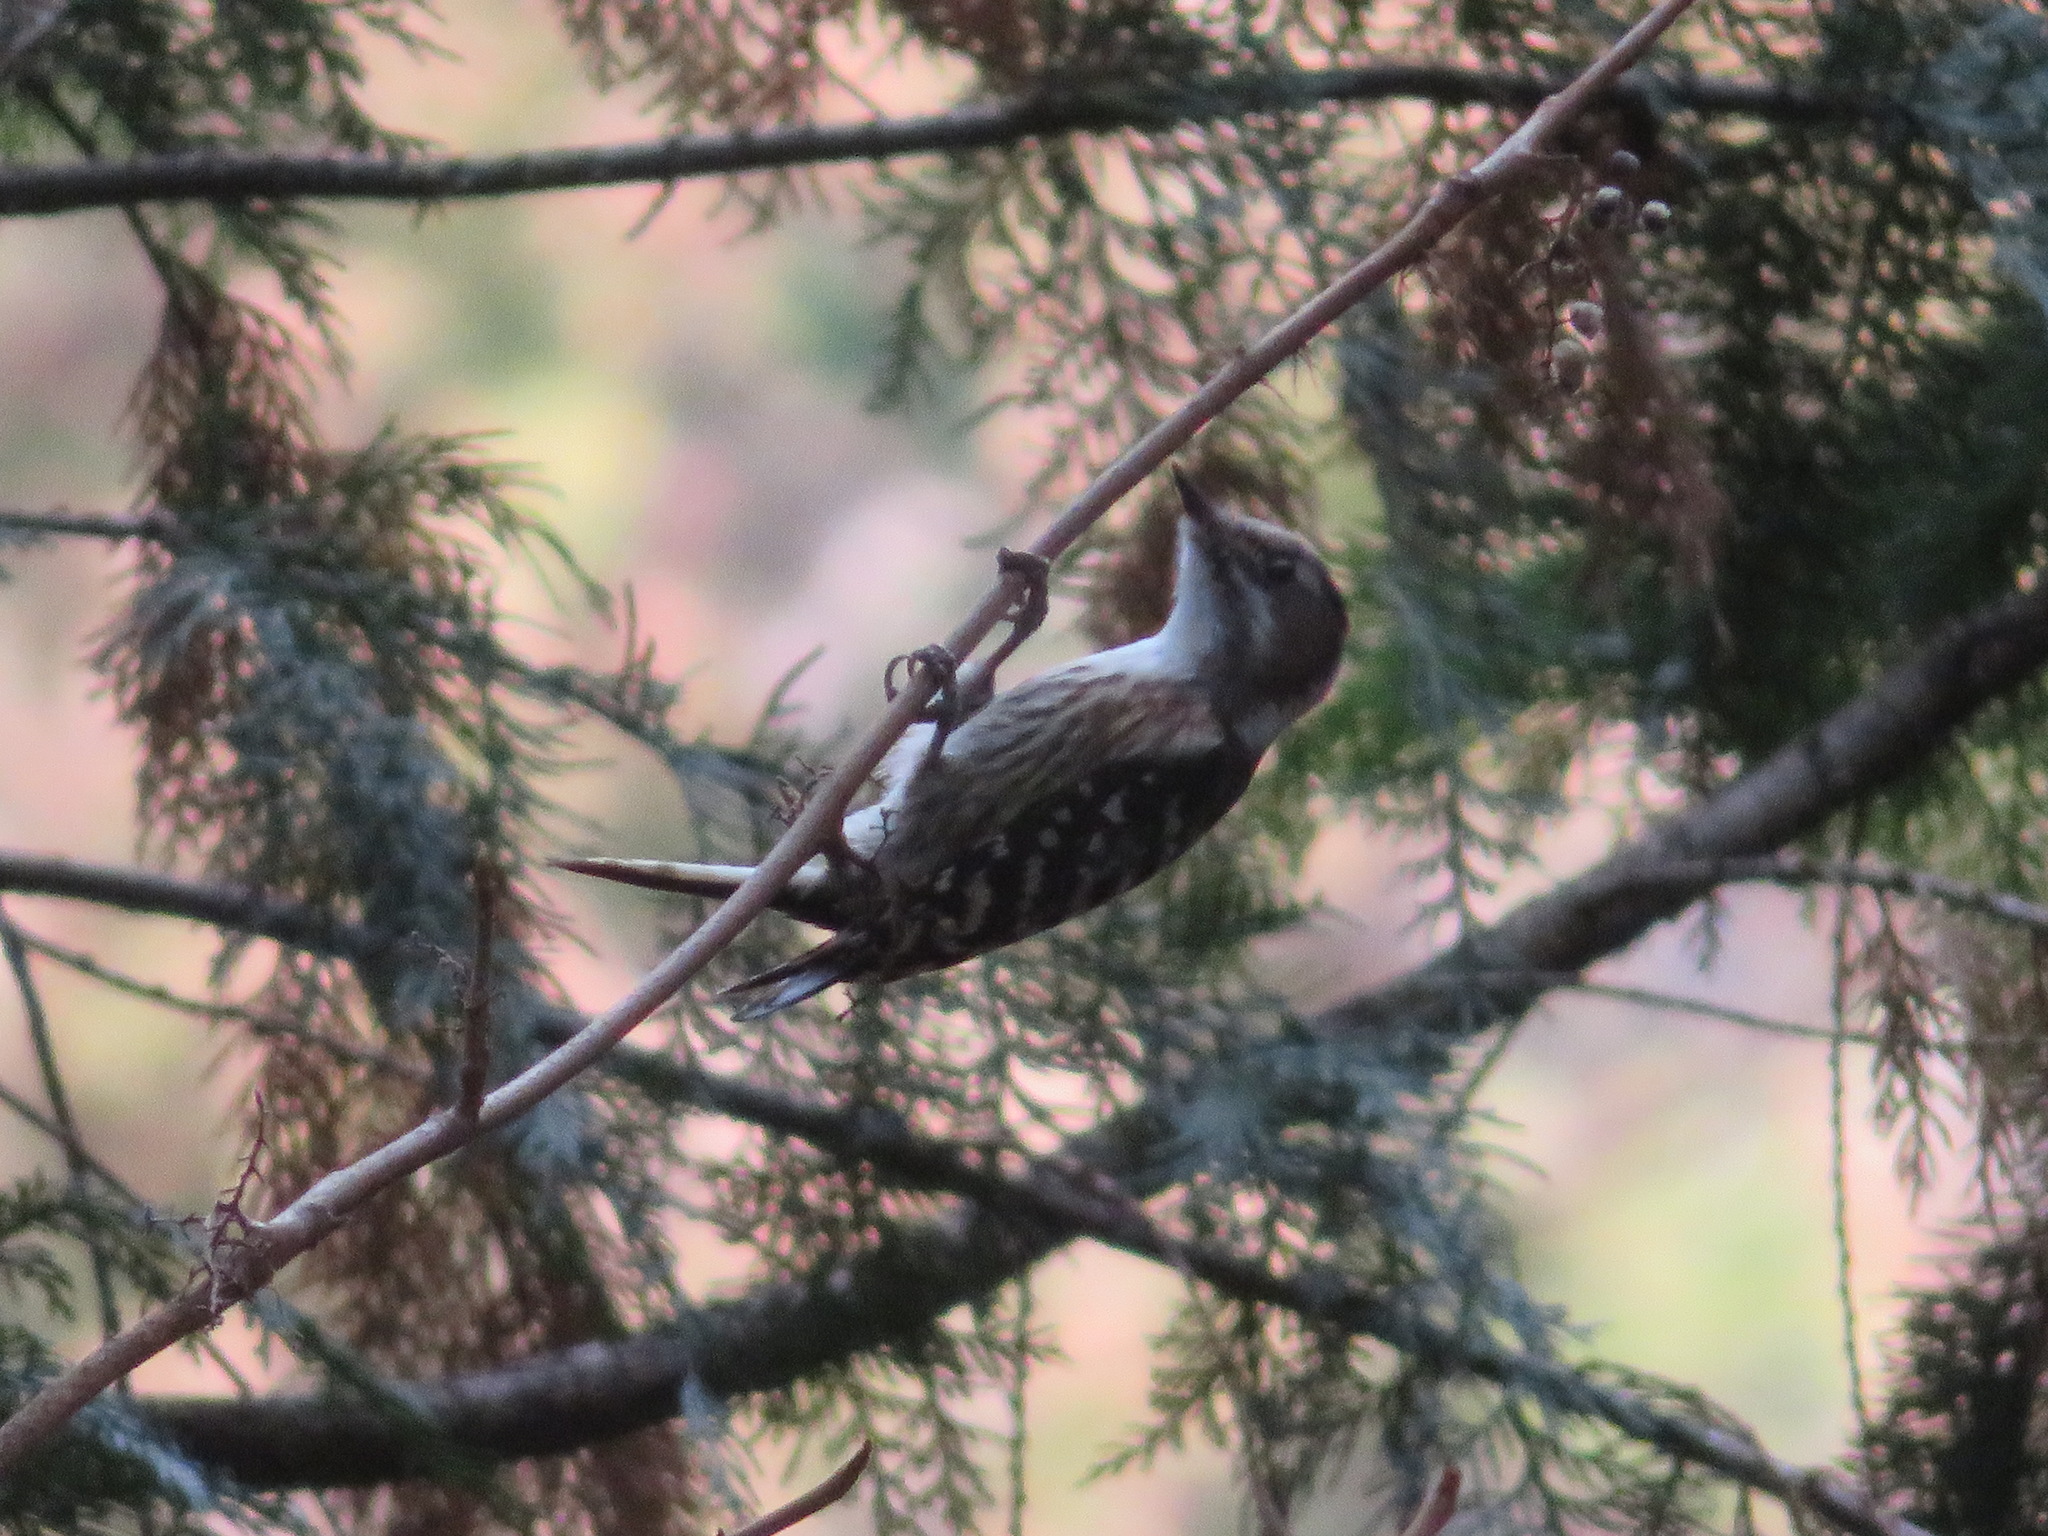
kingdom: Animalia
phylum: Chordata
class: Aves
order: Piciformes
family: Picidae
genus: Yungipicus
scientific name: Yungipicus kizuki
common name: Japanese pygmy woodpecker
